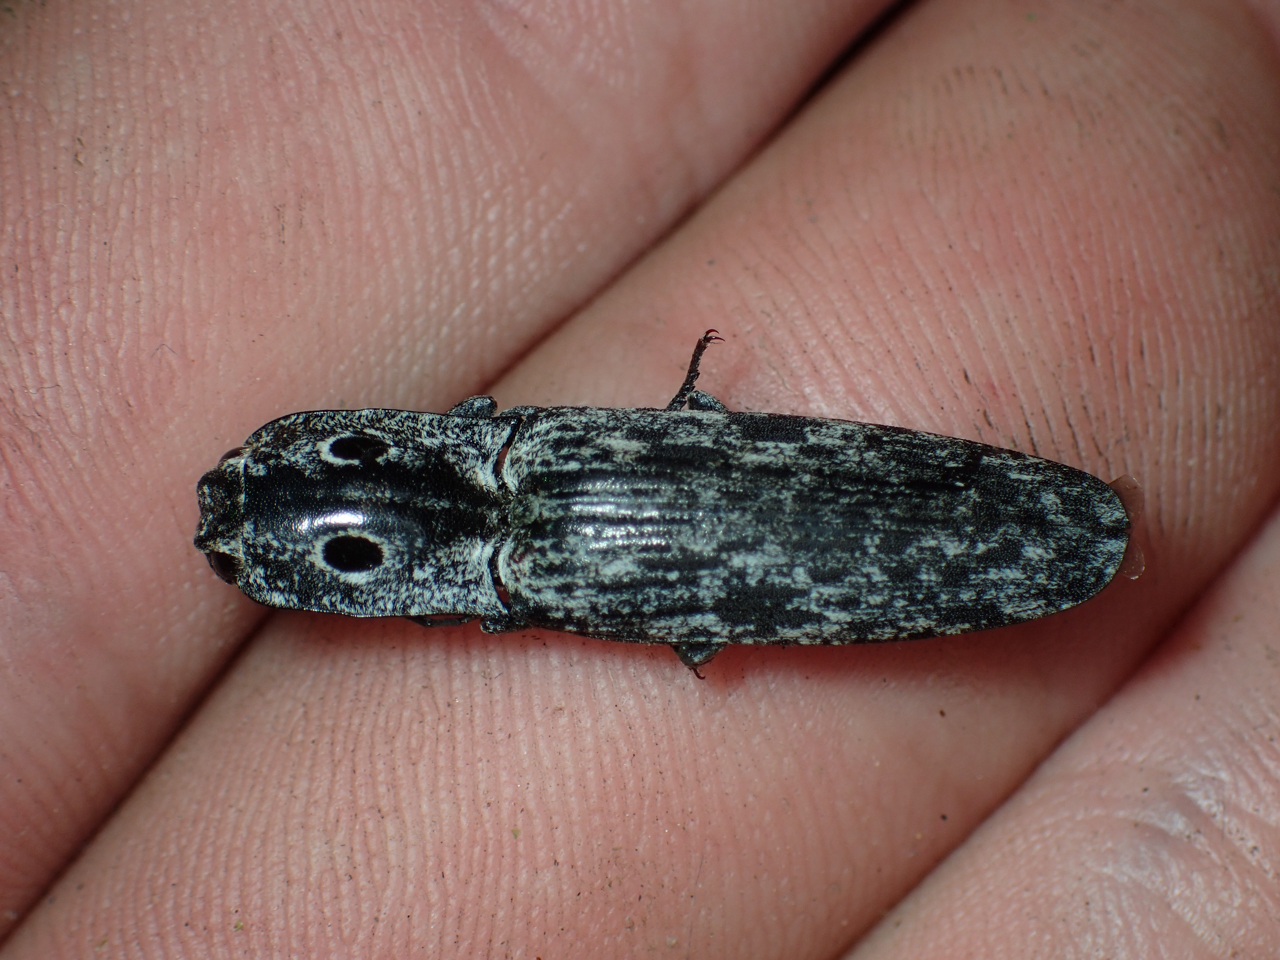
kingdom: Animalia
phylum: Arthropoda
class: Insecta
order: Coleoptera
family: Elateridae
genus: Alaus
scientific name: Alaus myops
